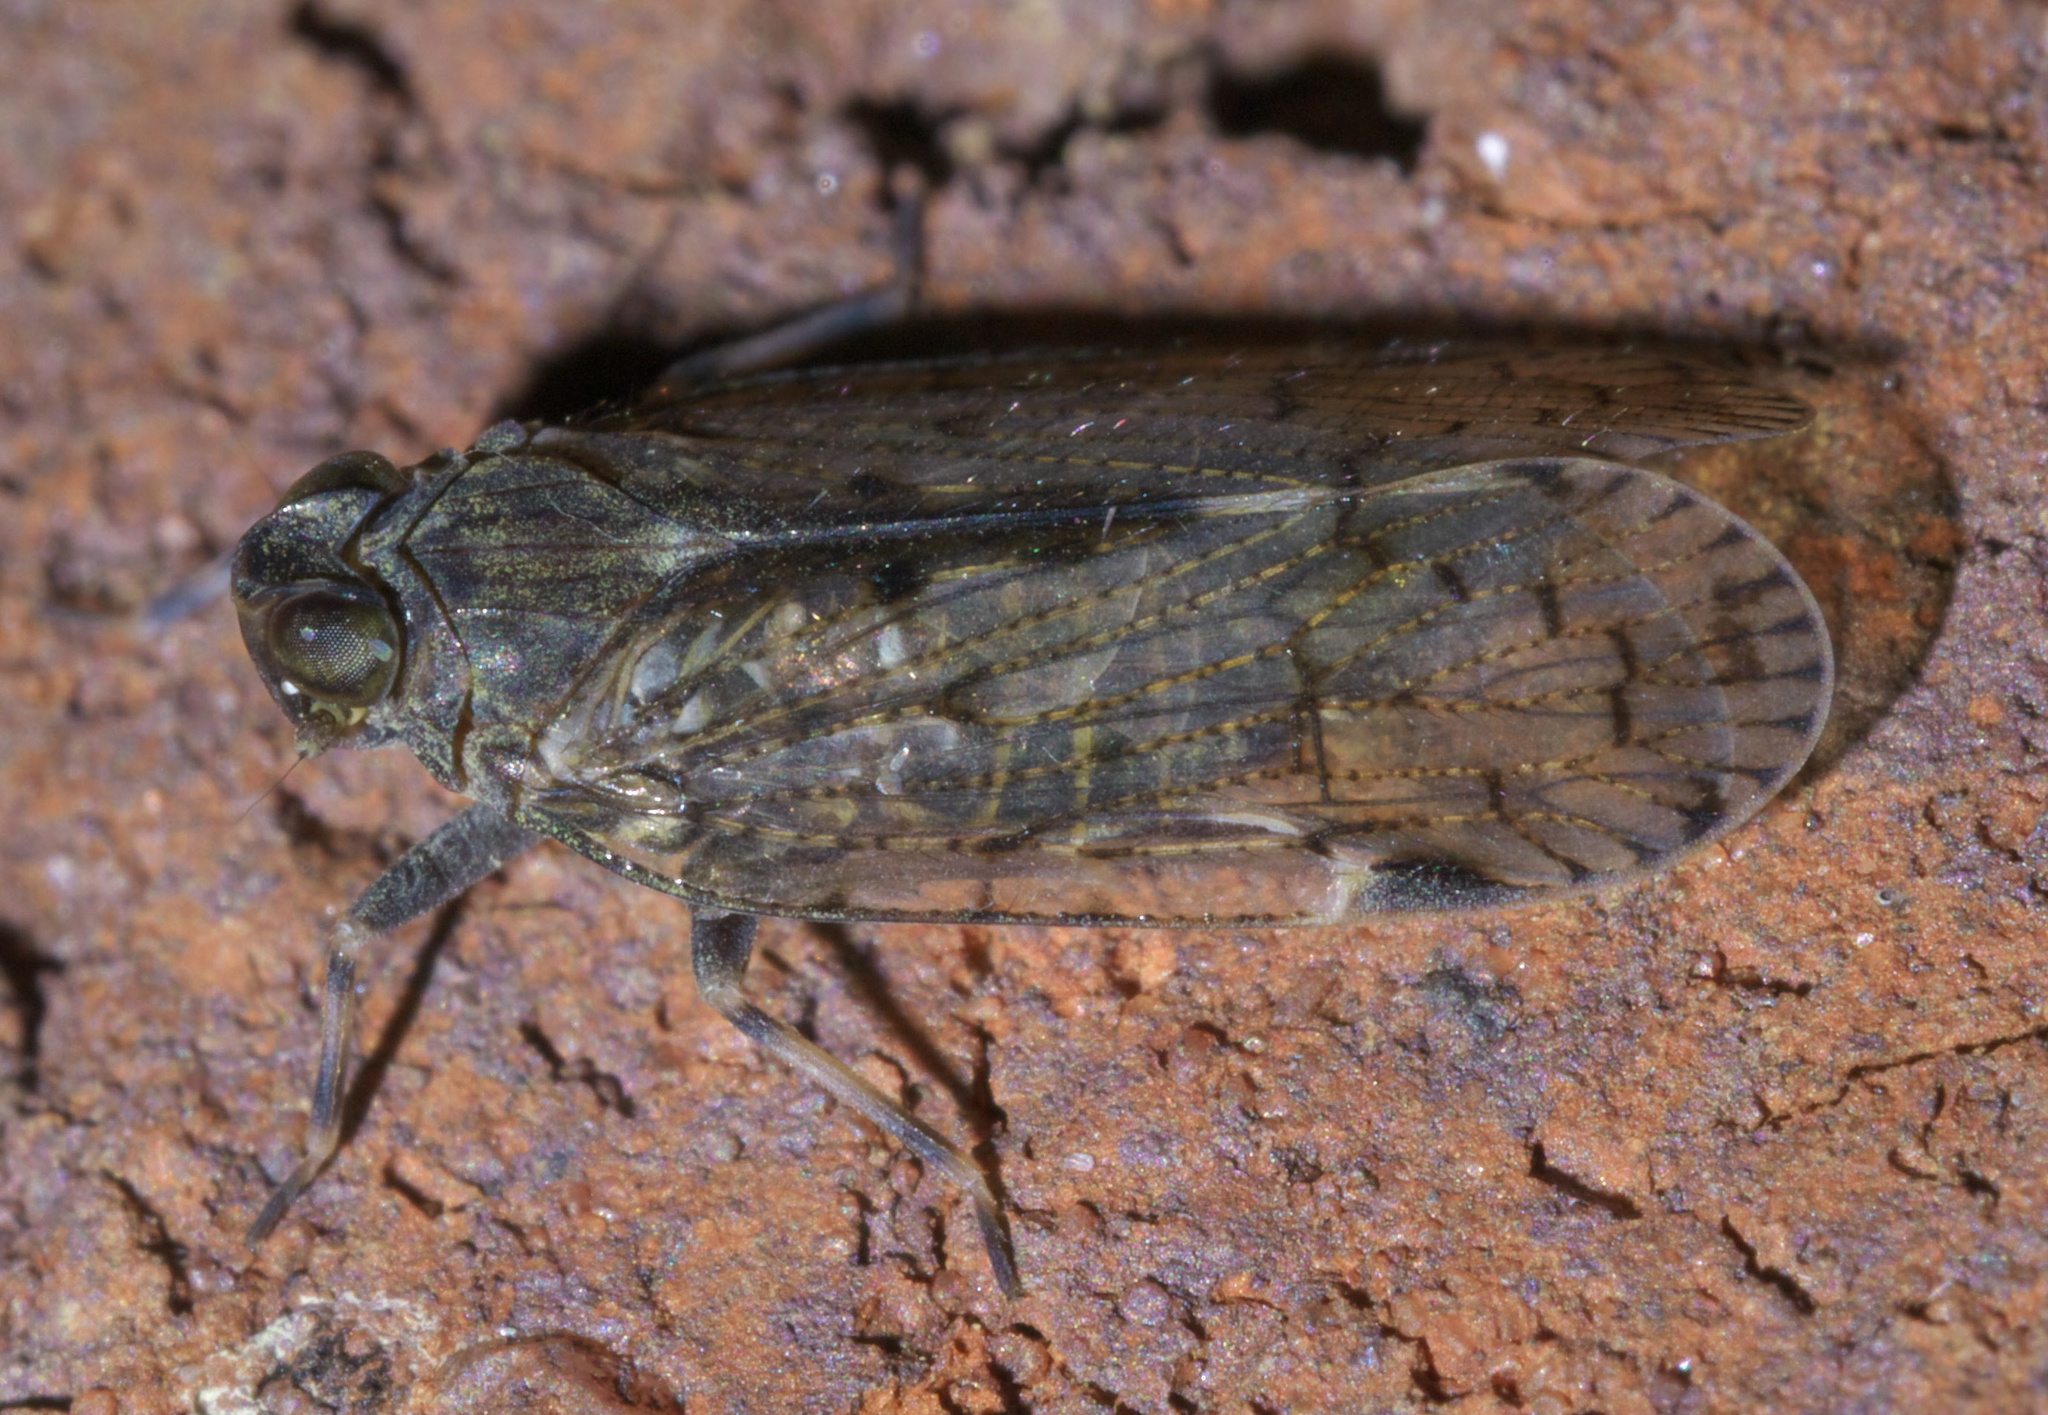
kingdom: Animalia
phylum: Arthropoda
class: Insecta
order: Hemiptera
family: Cixiidae
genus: Melanoliarus
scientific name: Melanoliarus placitus
